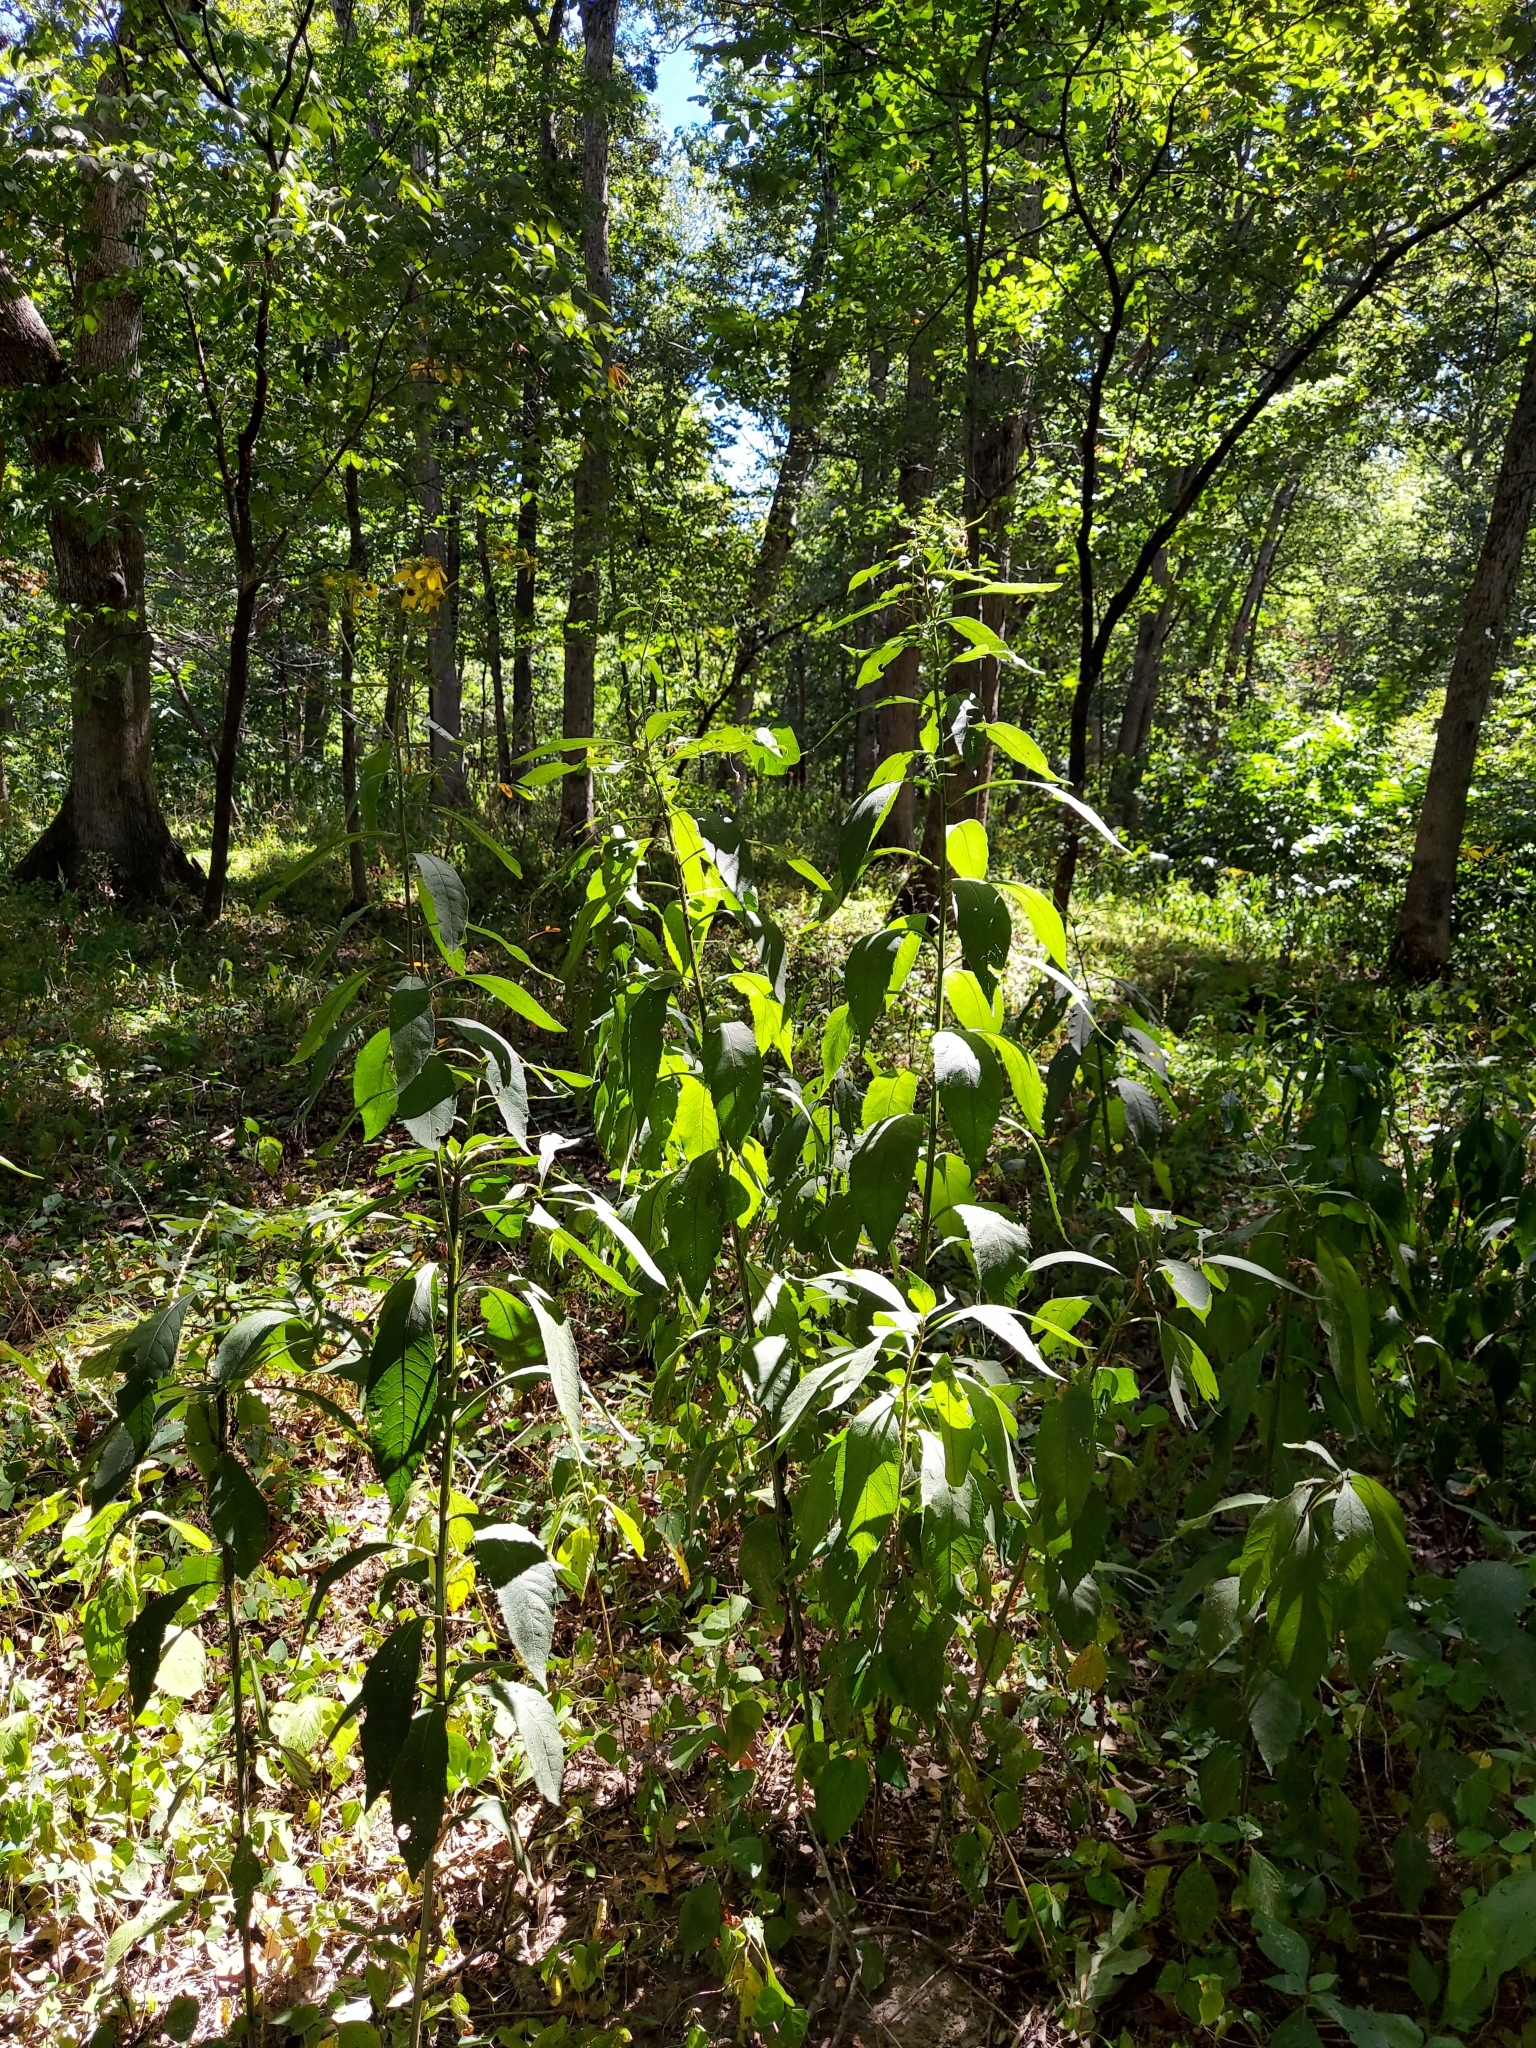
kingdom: Plantae
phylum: Tracheophyta
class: Magnoliopsida
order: Asterales
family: Asteraceae
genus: Verbesina
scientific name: Verbesina alternifolia
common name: Wingstem
